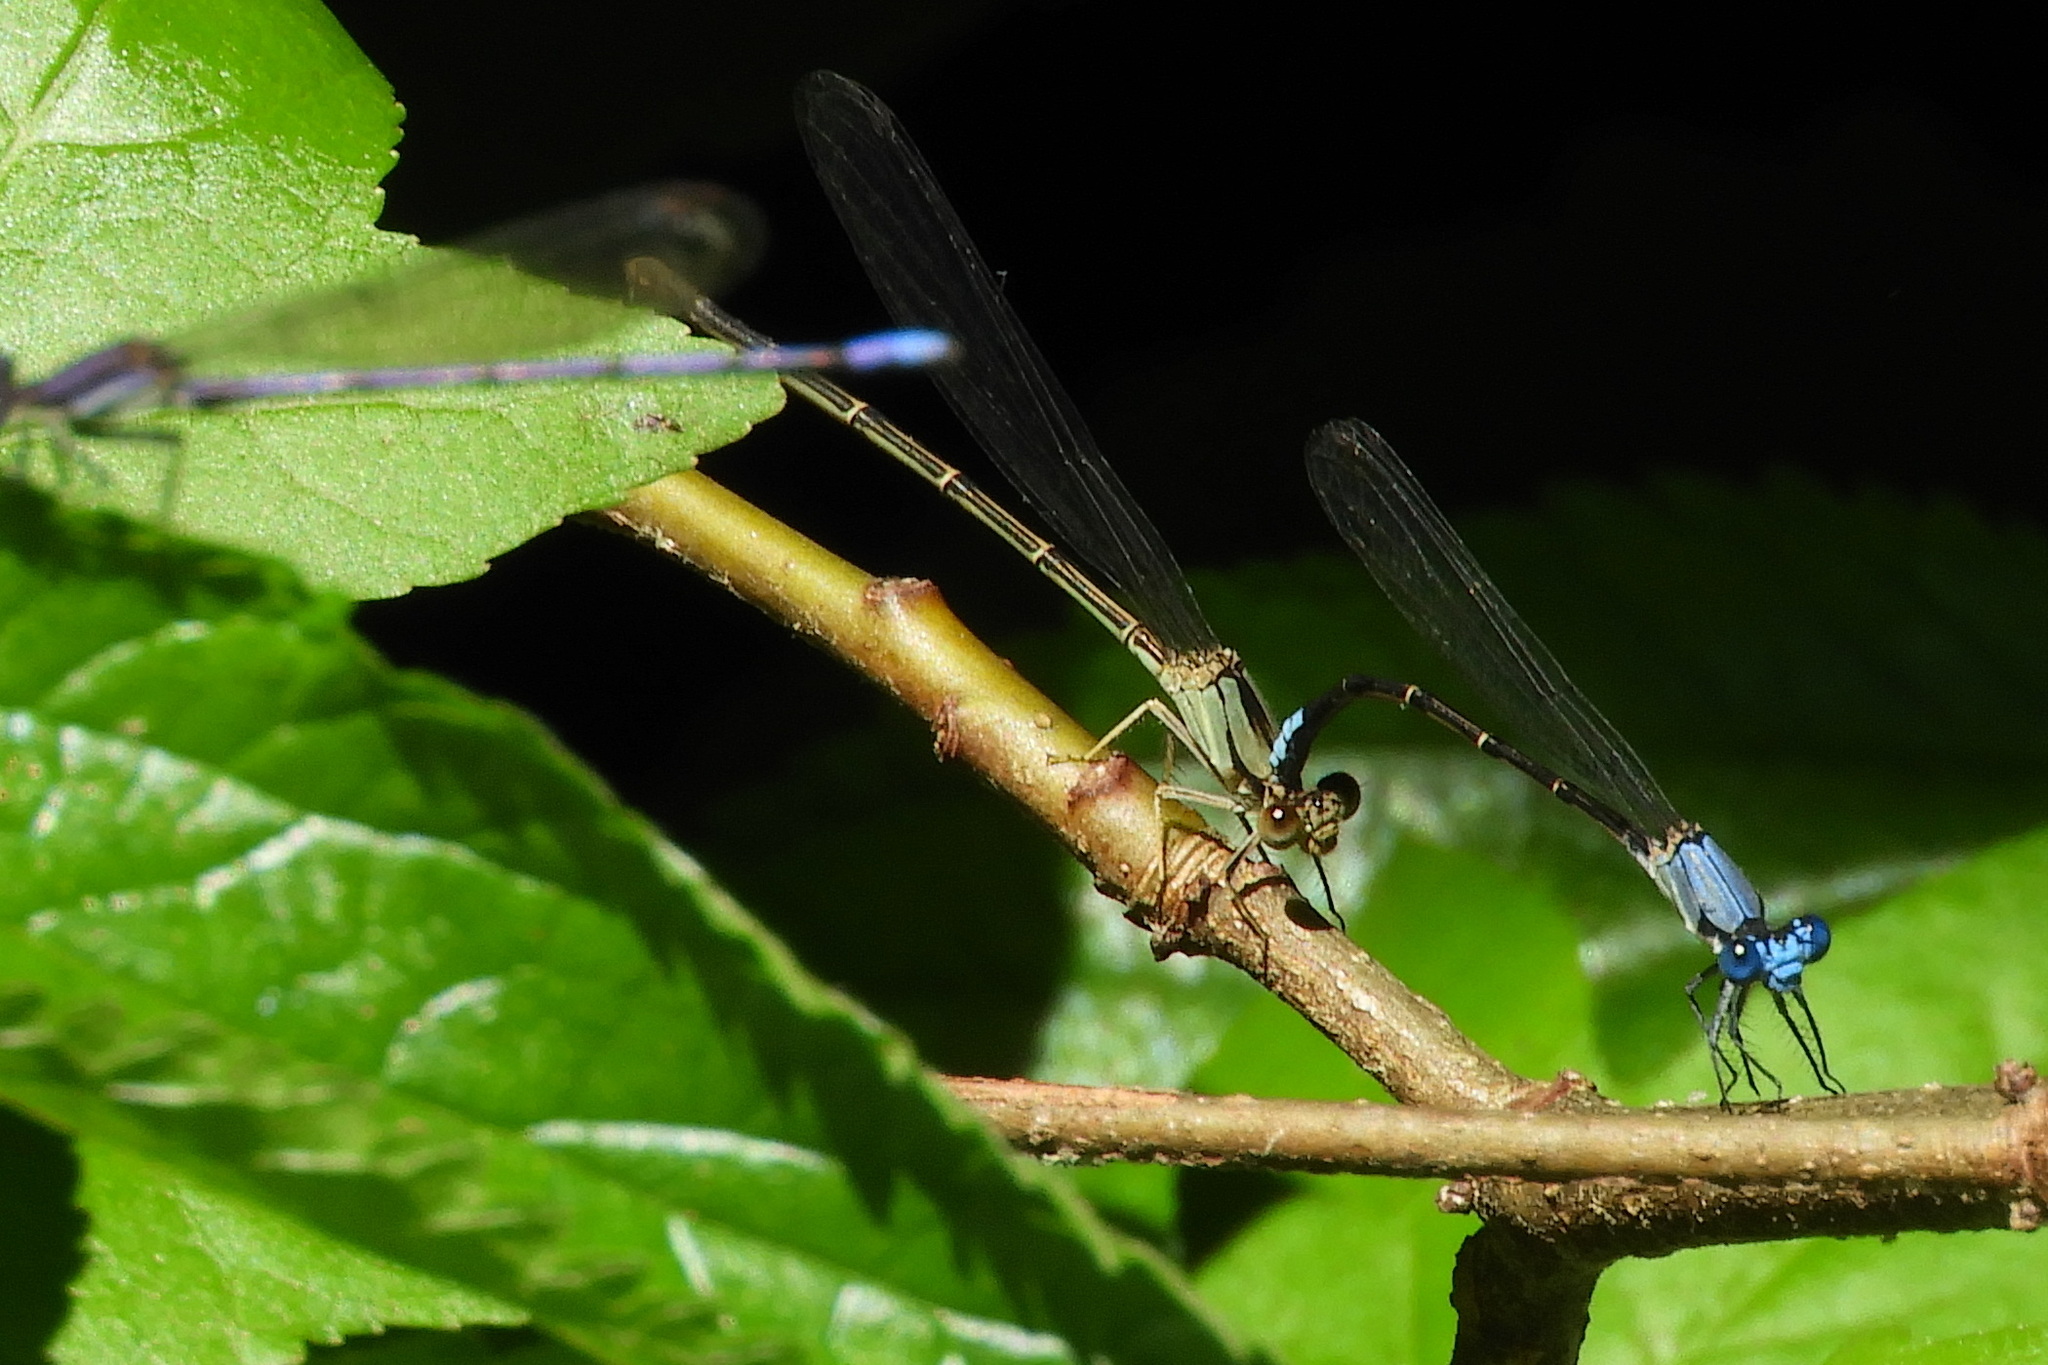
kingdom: Animalia
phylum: Arthropoda
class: Insecta
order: Odonata
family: Coenagrionidae
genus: Argia
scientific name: Argia apicalis
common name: Blue-fronted dancer
